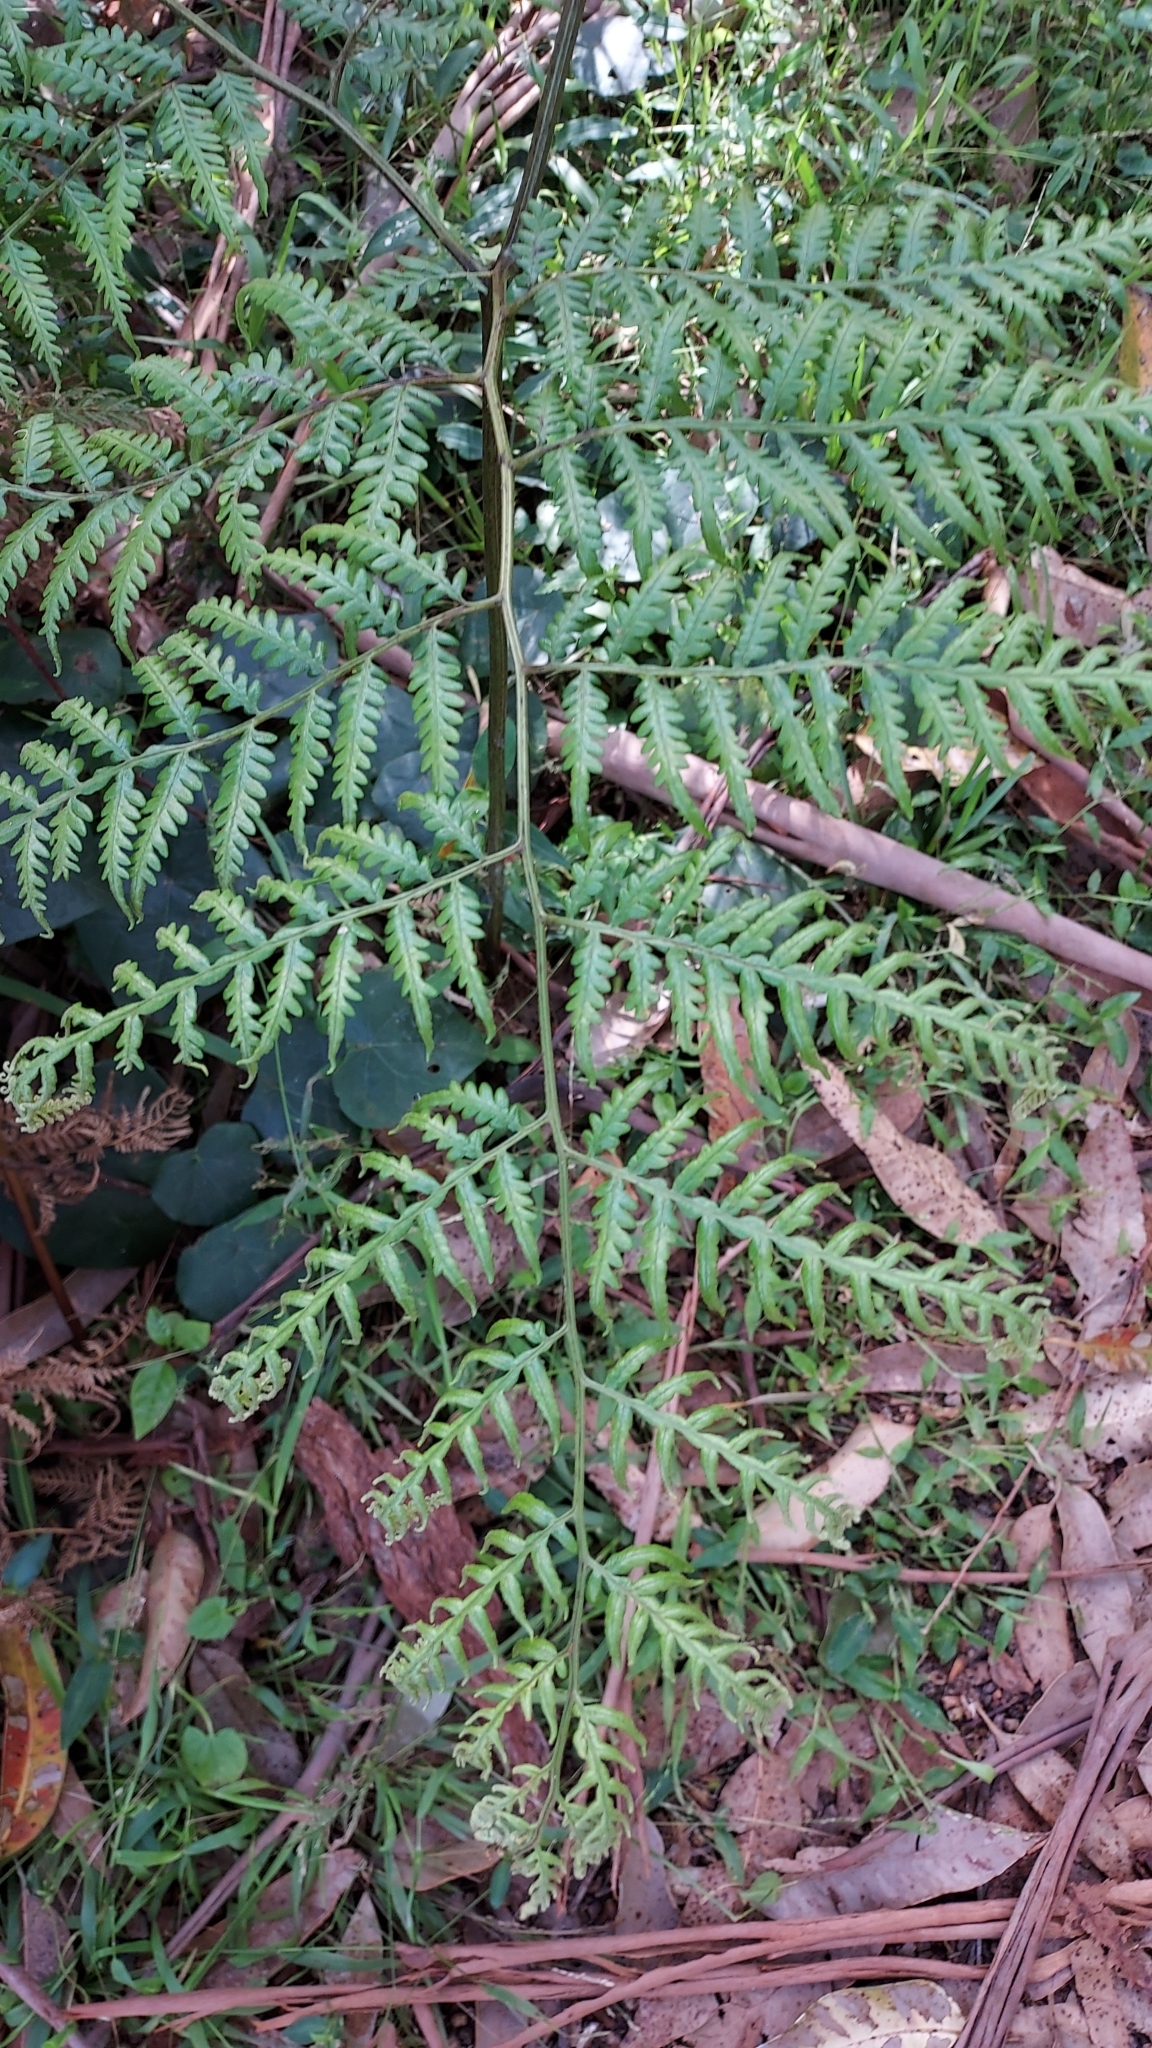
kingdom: Plantae
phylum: Tracheophyta
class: Polypodiopsida
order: Polypodiales
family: Dennstaedtiaceae
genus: Pteridium
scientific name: Pteridium esculentum
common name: Bracken fern
